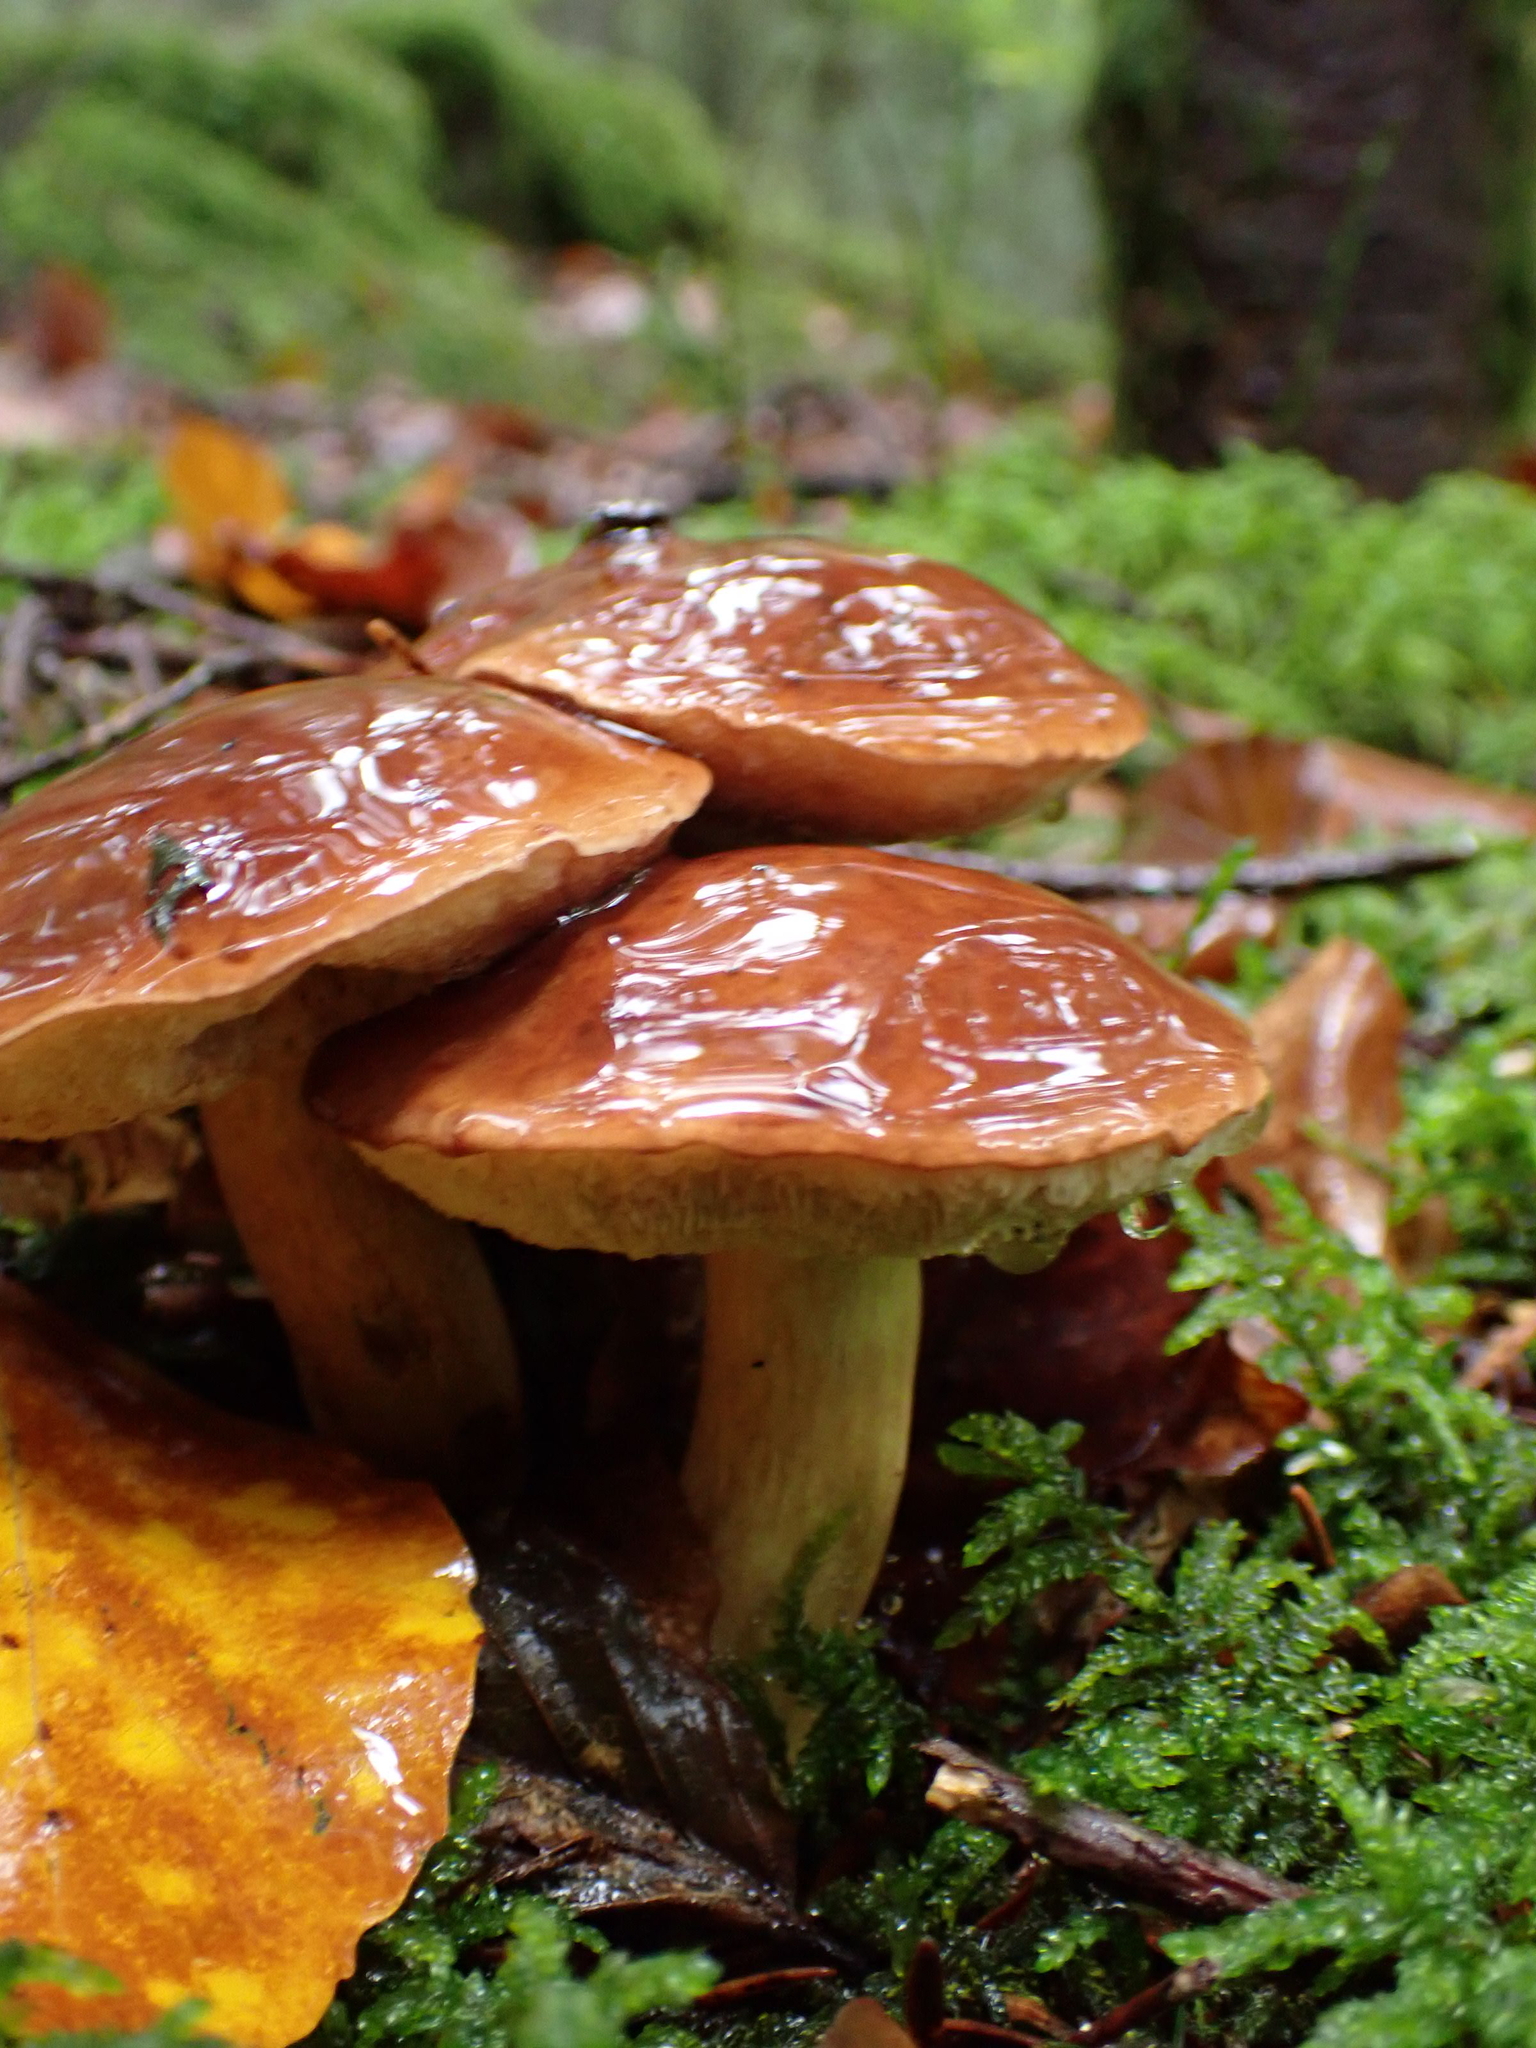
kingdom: Fungi
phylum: Basidiomycota
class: Agaricomycetes
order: Boletales
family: Boletaceae
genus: Imleria
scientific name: Imleria badia
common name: Bay bolete
